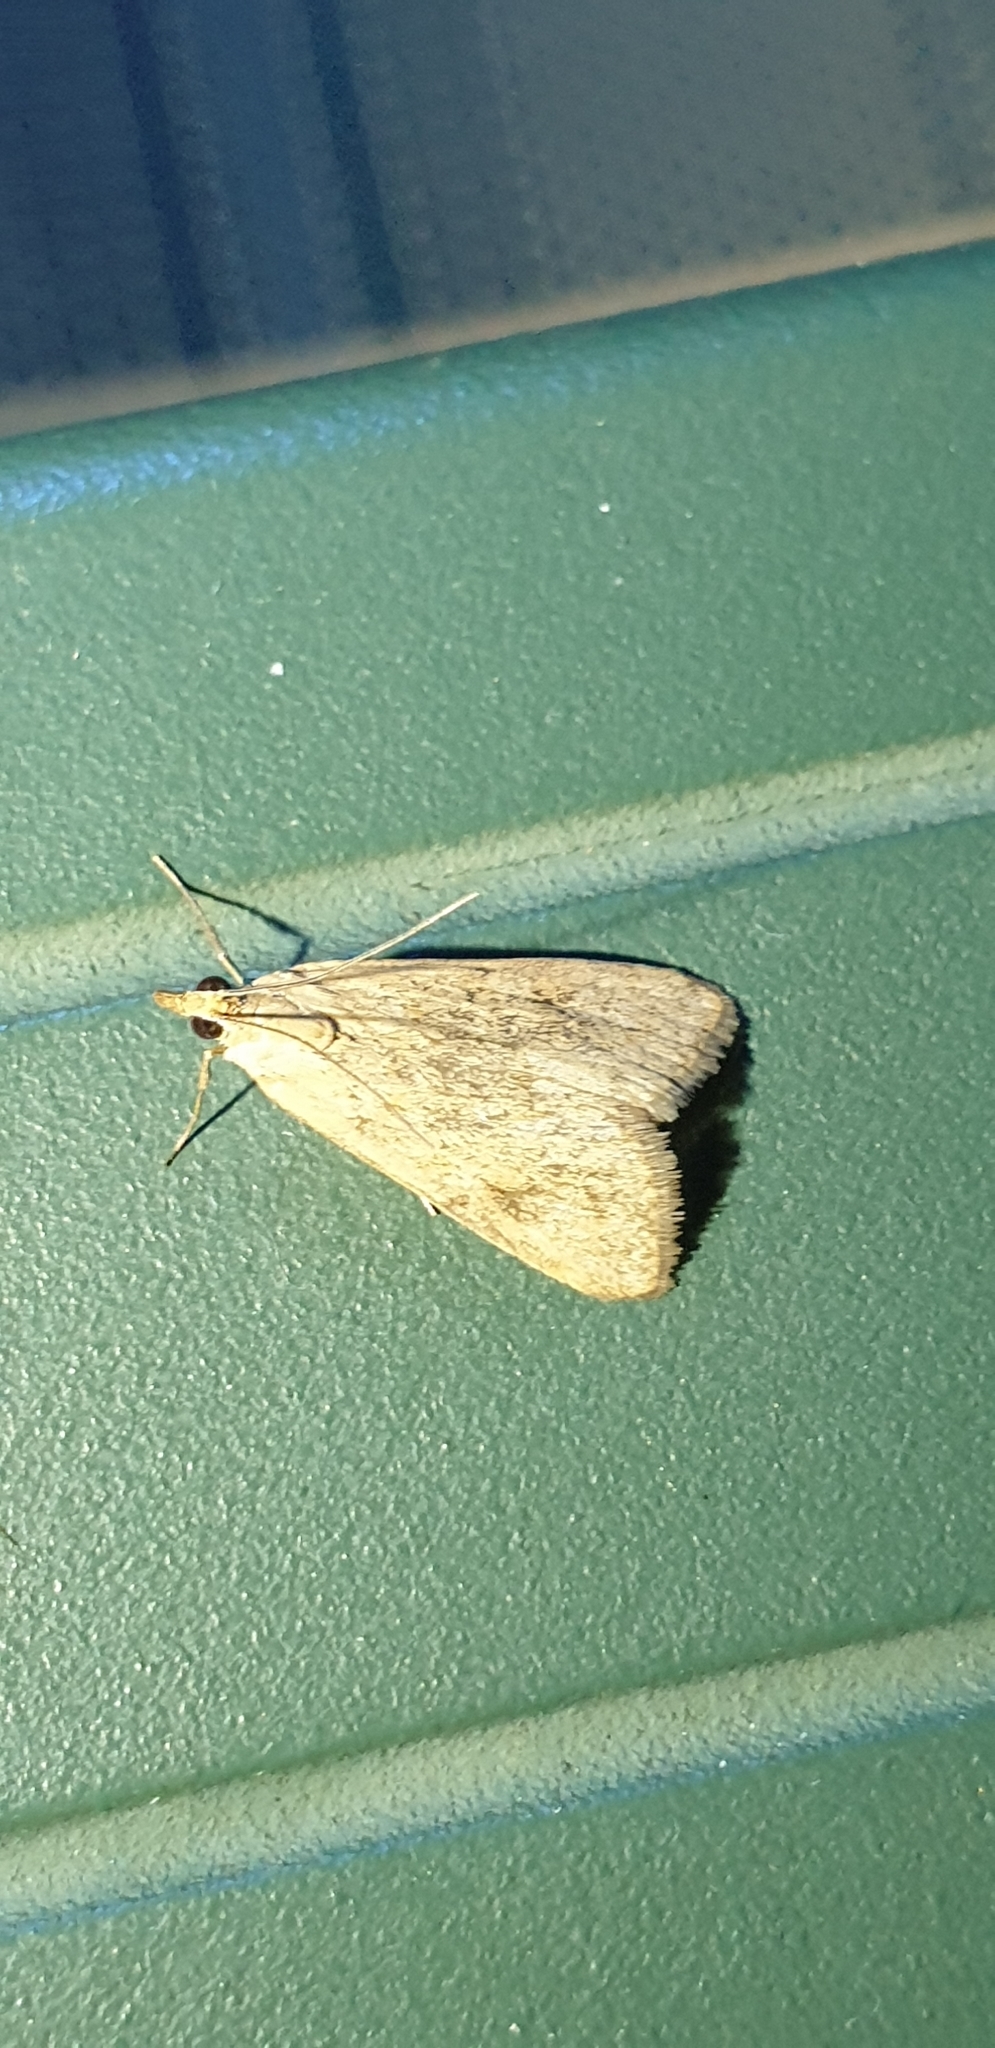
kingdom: Animalia
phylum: Arthropoda
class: Insecta
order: Lepidoptera
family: Crambidae
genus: Achyra
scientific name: Achyra affinitalis
